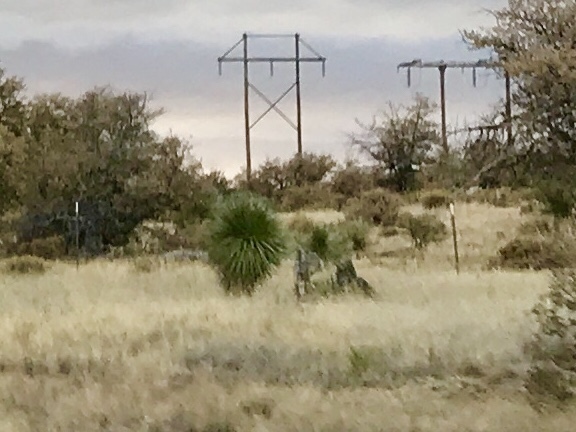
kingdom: Plantae
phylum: Tracheophyta
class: Liliopsida
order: Asparagales
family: Asparagaceae
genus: Yucca
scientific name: Yucca elata
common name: Palmella
